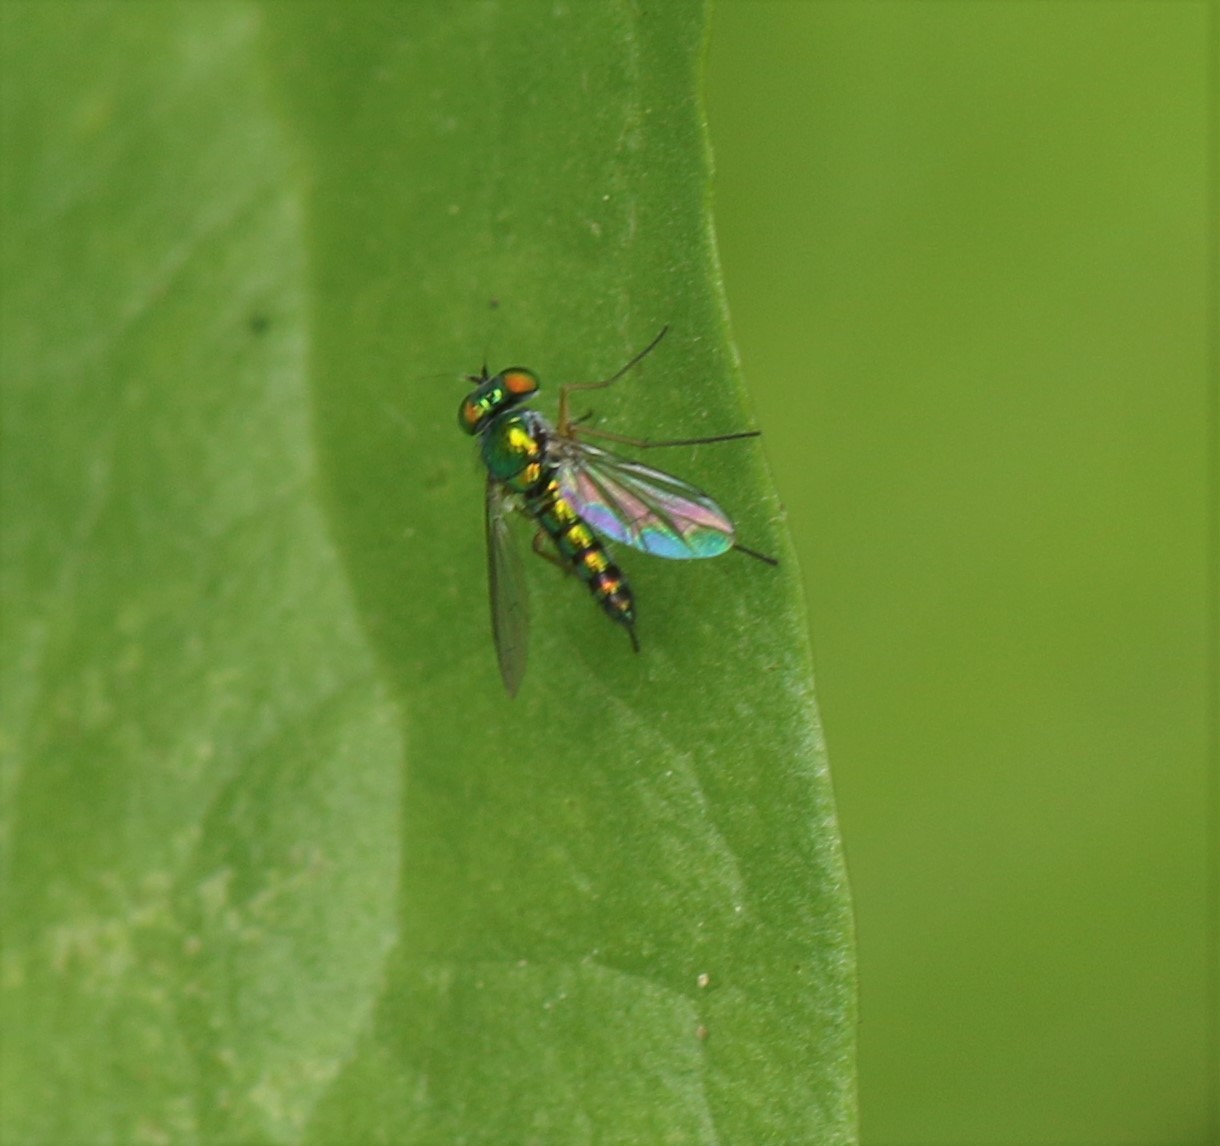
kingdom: Animalia
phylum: Arthropoda
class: Insecta
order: Diptera
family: Dolichopodidae
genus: Condylostylus
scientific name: Condylostylus flavipes
